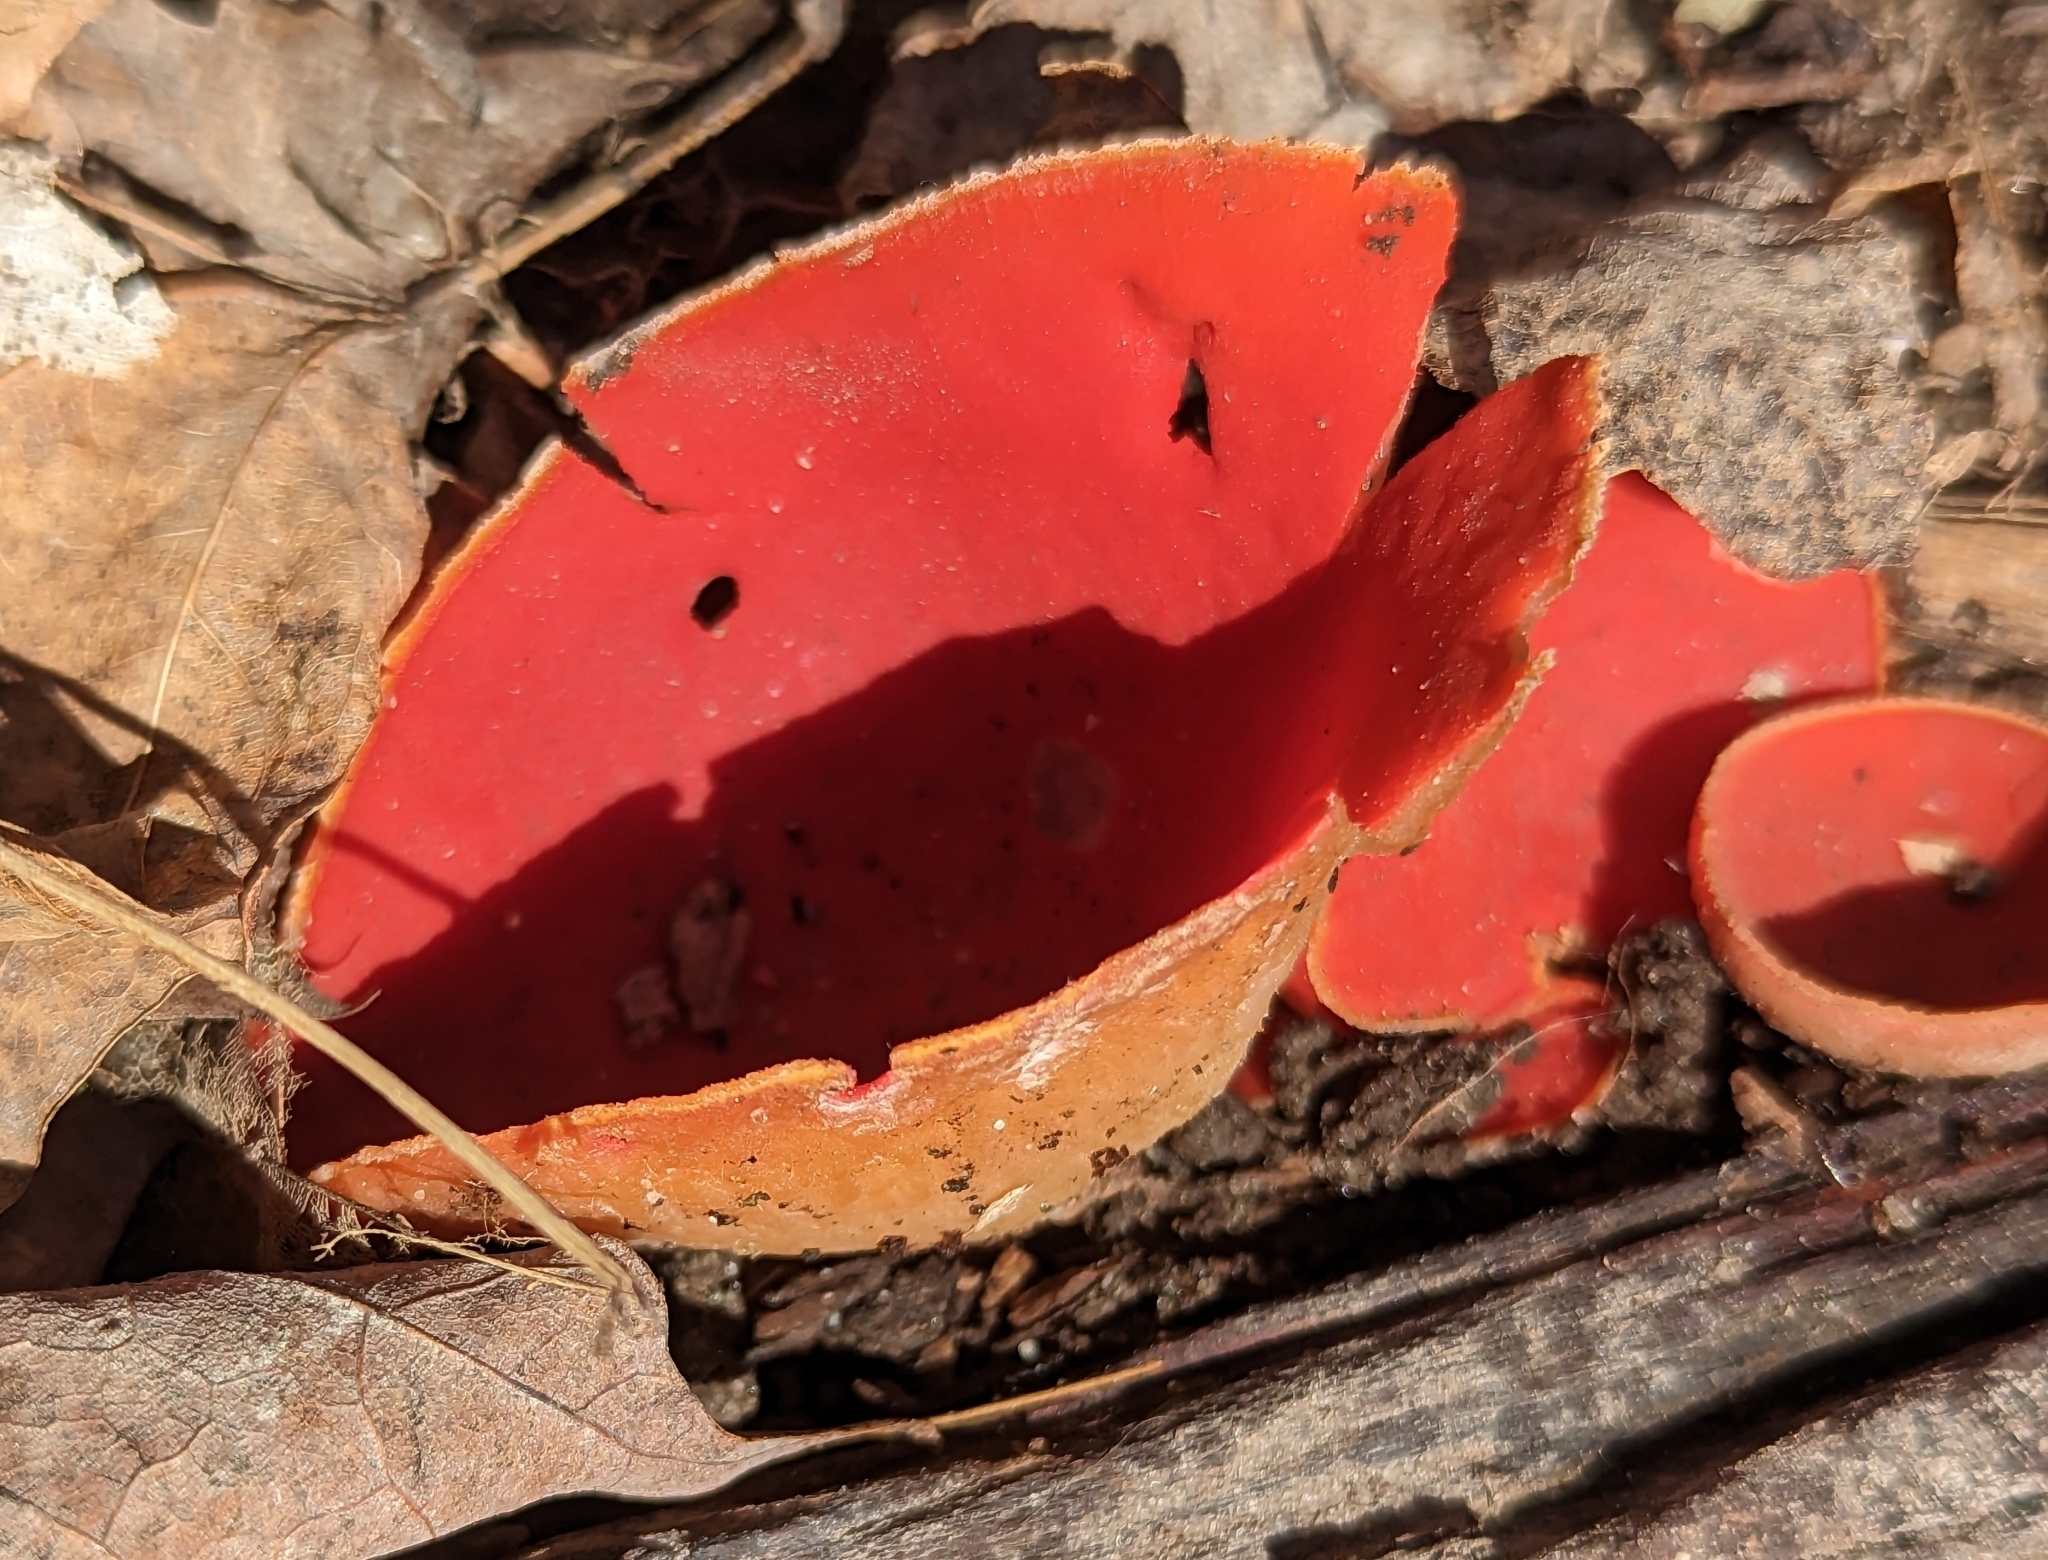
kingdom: Fungi
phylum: Ascomycota
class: Pezizomycetes
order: Pezizales
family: Sarcoscyphaceae
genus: Sarcoscypha
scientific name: Sarcoscypha austriaca
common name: Scarlet elfcup
